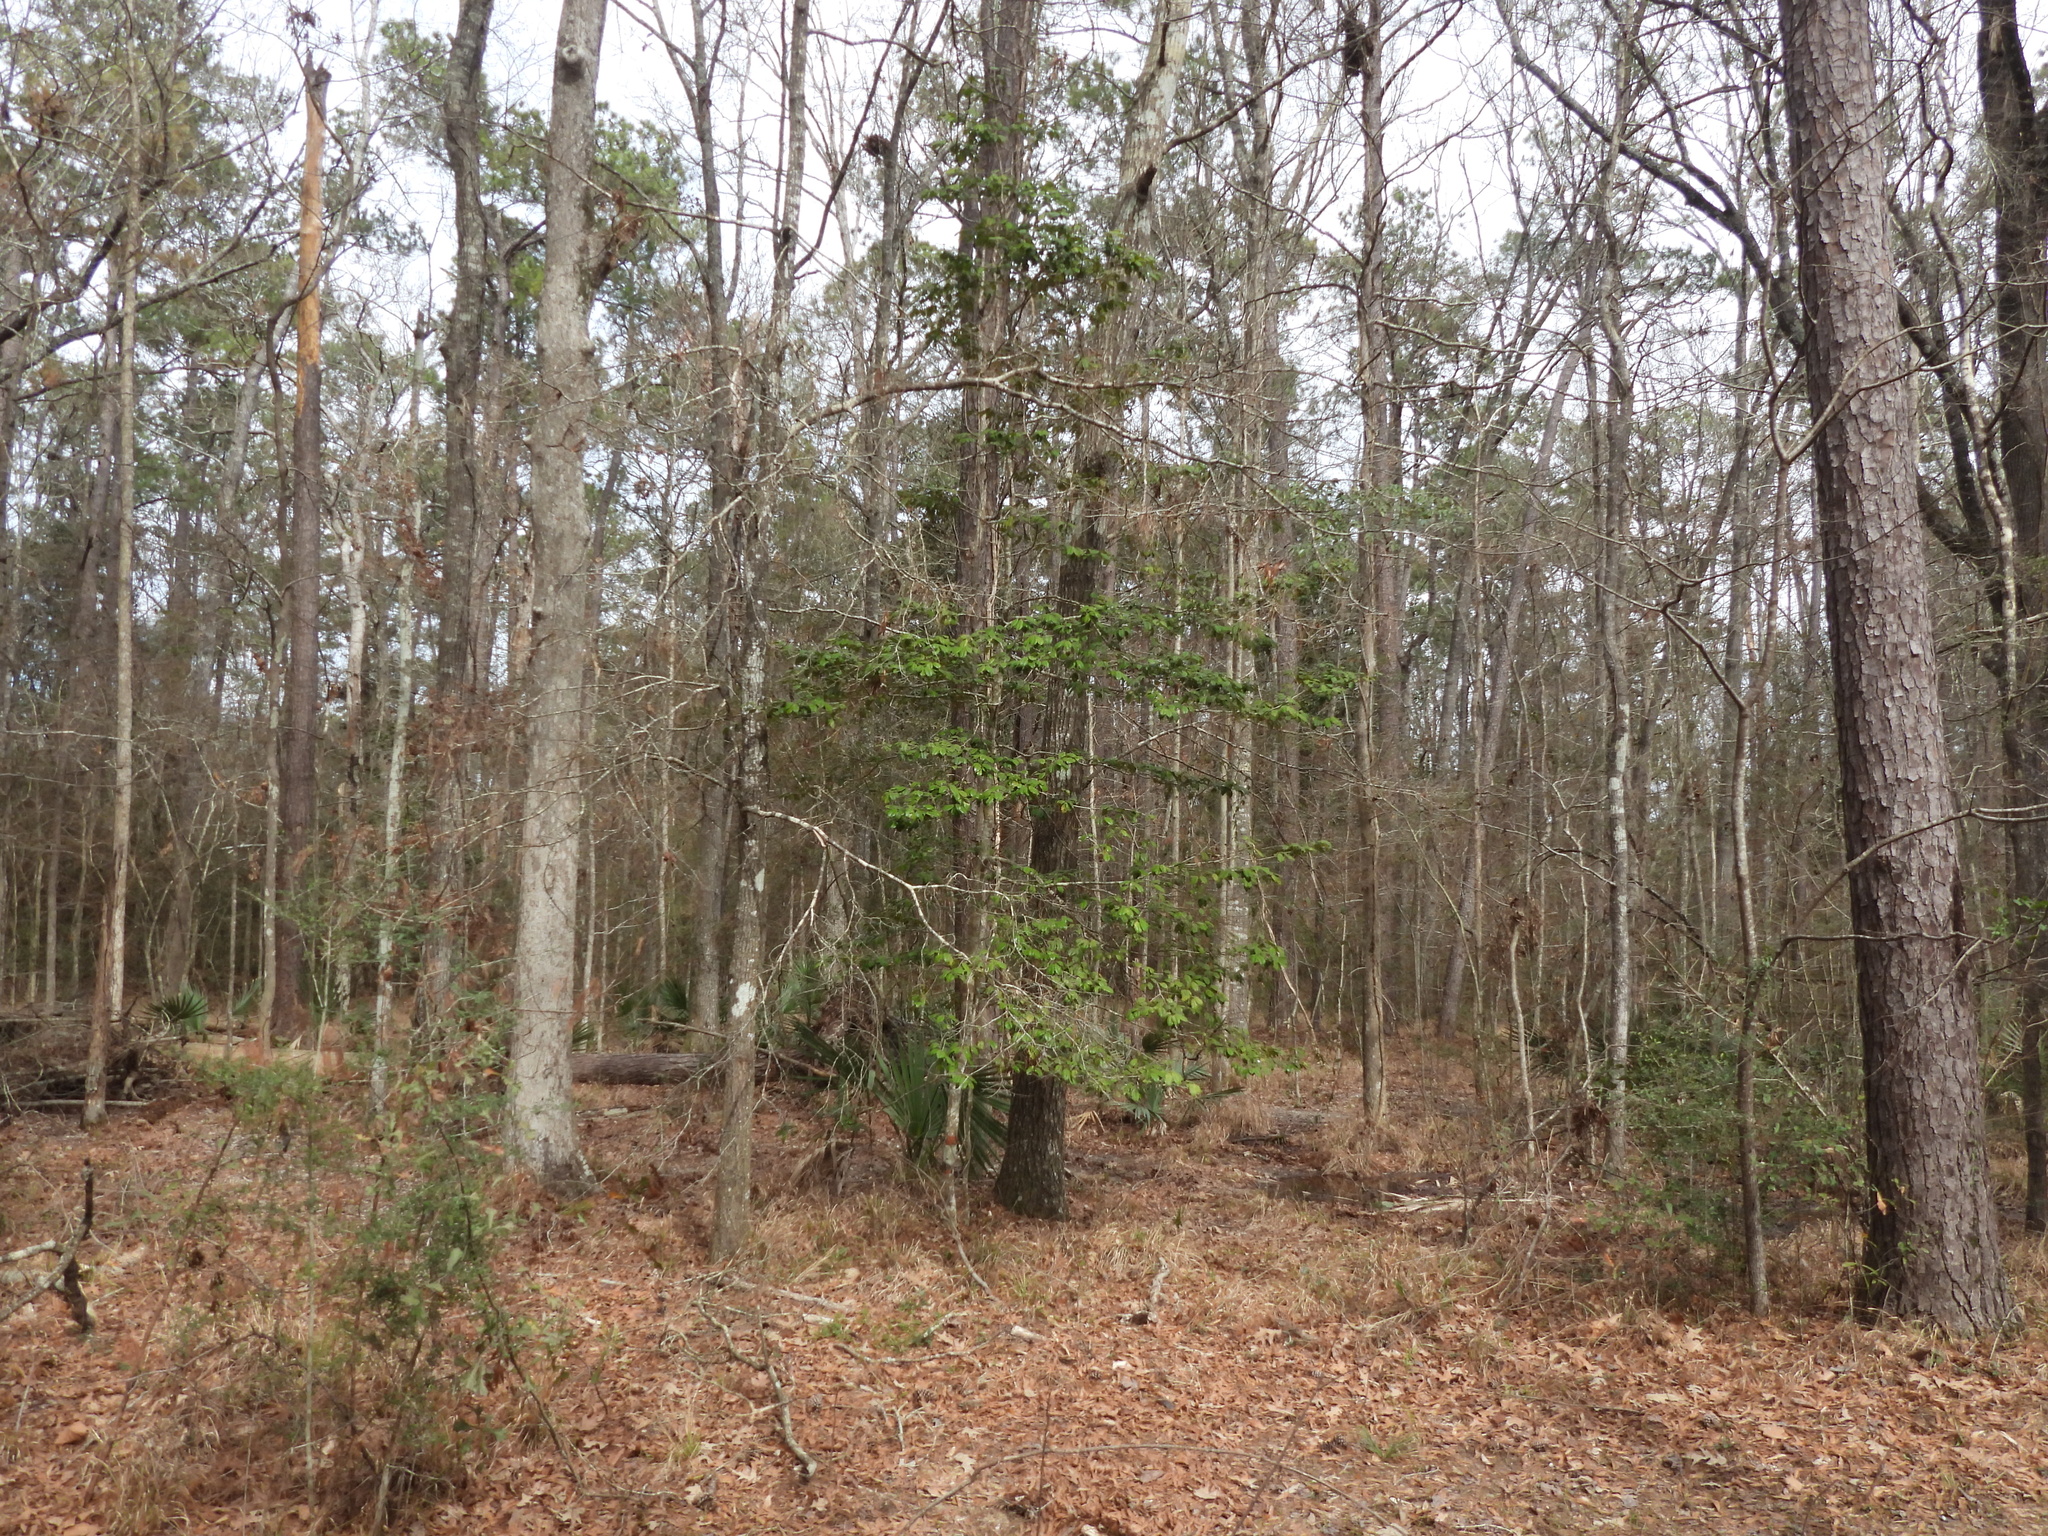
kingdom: Plantae
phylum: Tracheophyta
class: Magnoliopsida
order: Aquifoliales
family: Aquifoliaceae
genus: Ilex
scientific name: Ilex opaca
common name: American holly
